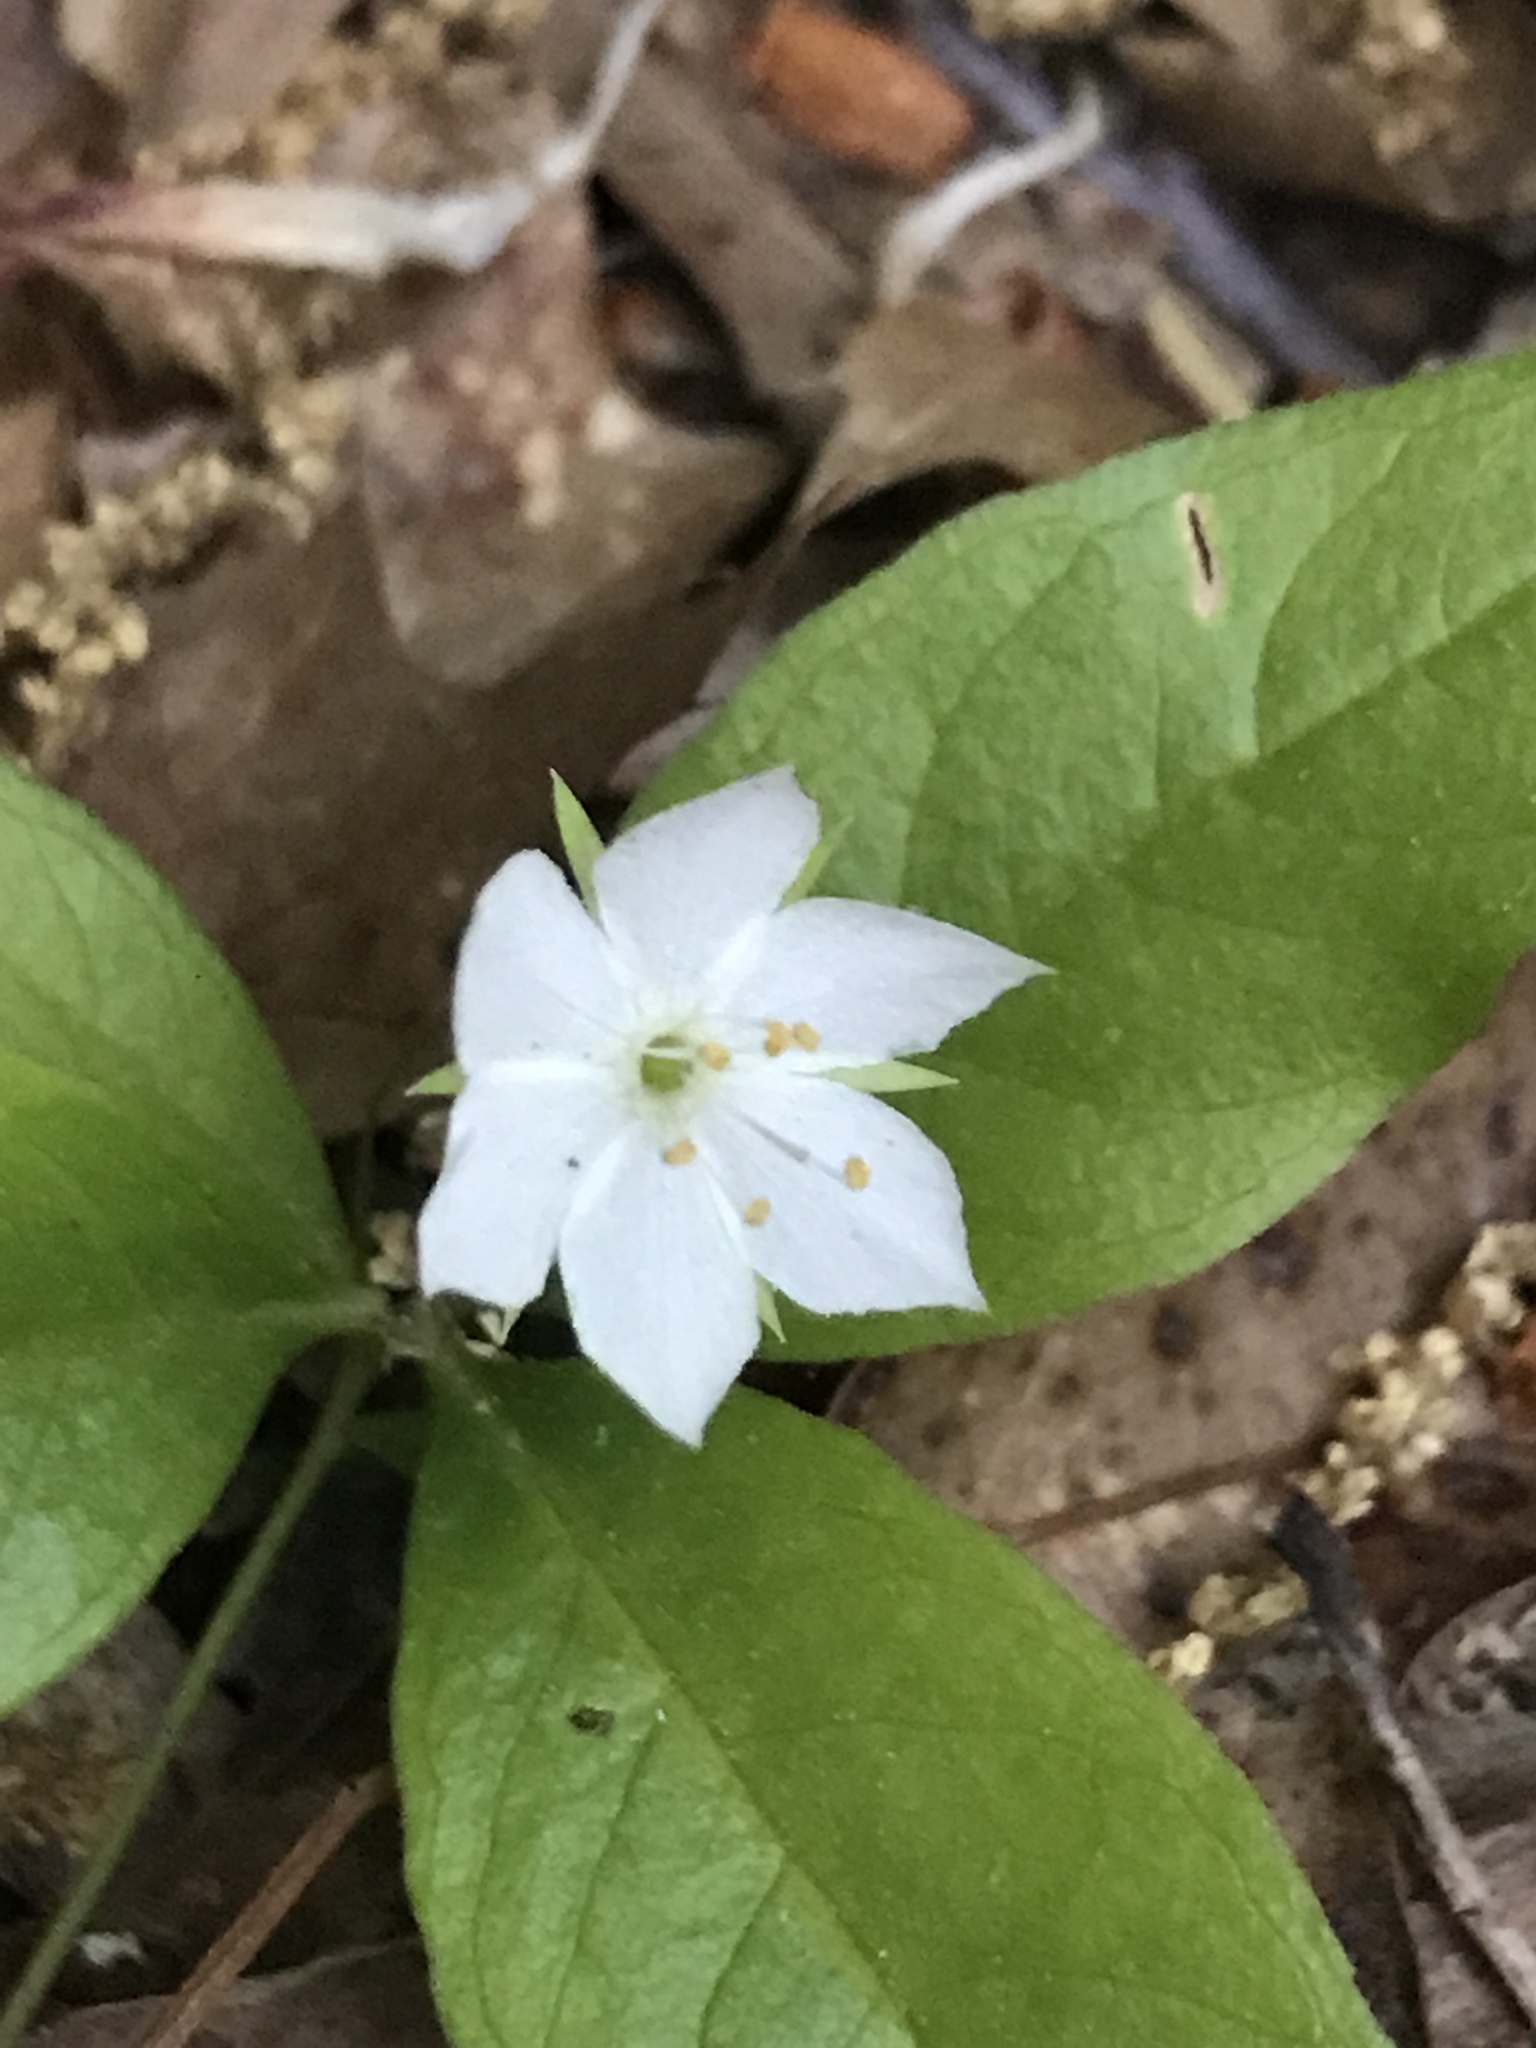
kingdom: Plantae
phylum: Tracheophyta
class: Magnoliopsida
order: Ericales
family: Primulaceae
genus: Lysimachia
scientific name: Lysimachia borealis
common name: American starflower
